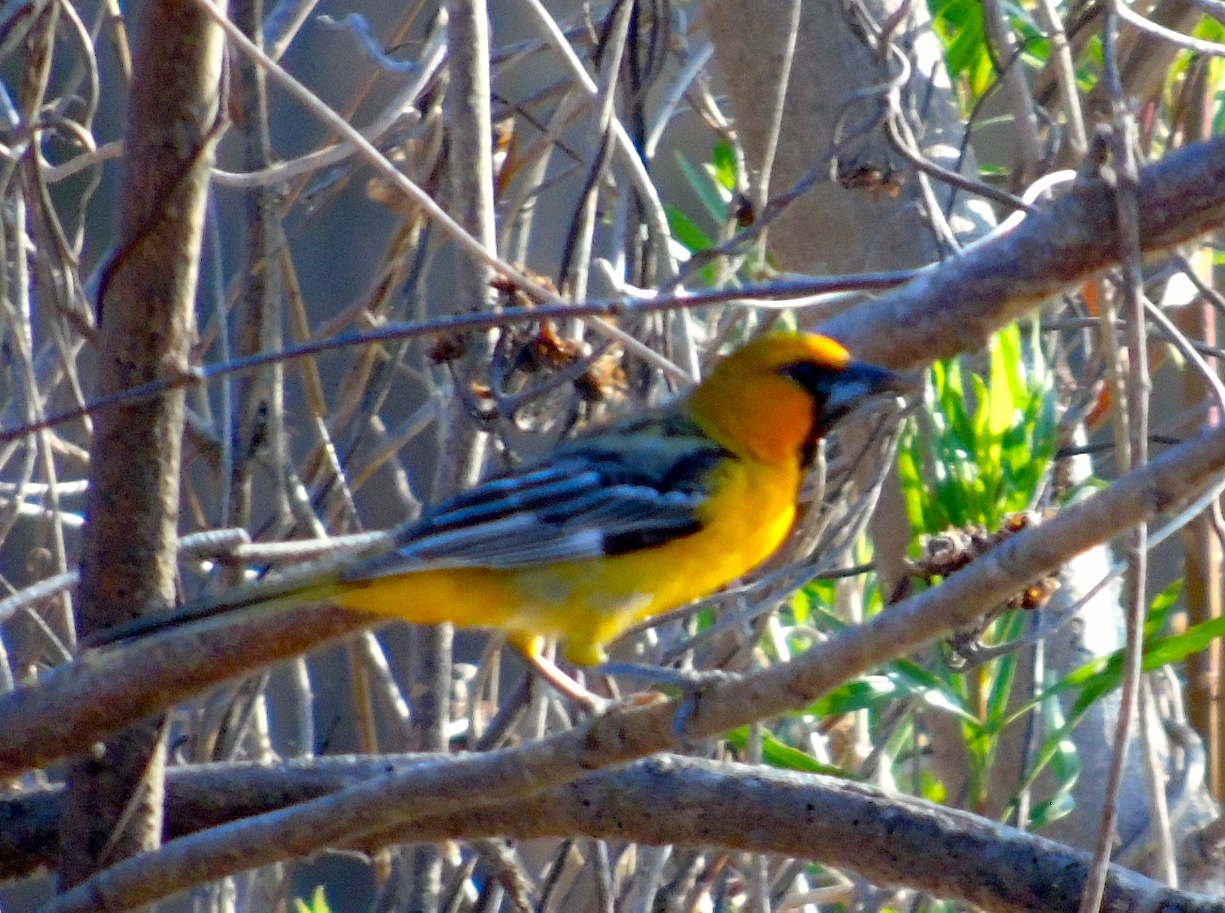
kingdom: Animalia
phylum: Chordata
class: Aves
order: Passeriformes
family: Icteridae
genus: Icterus
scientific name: Icterus pustulatus
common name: Streak-backed oriole
